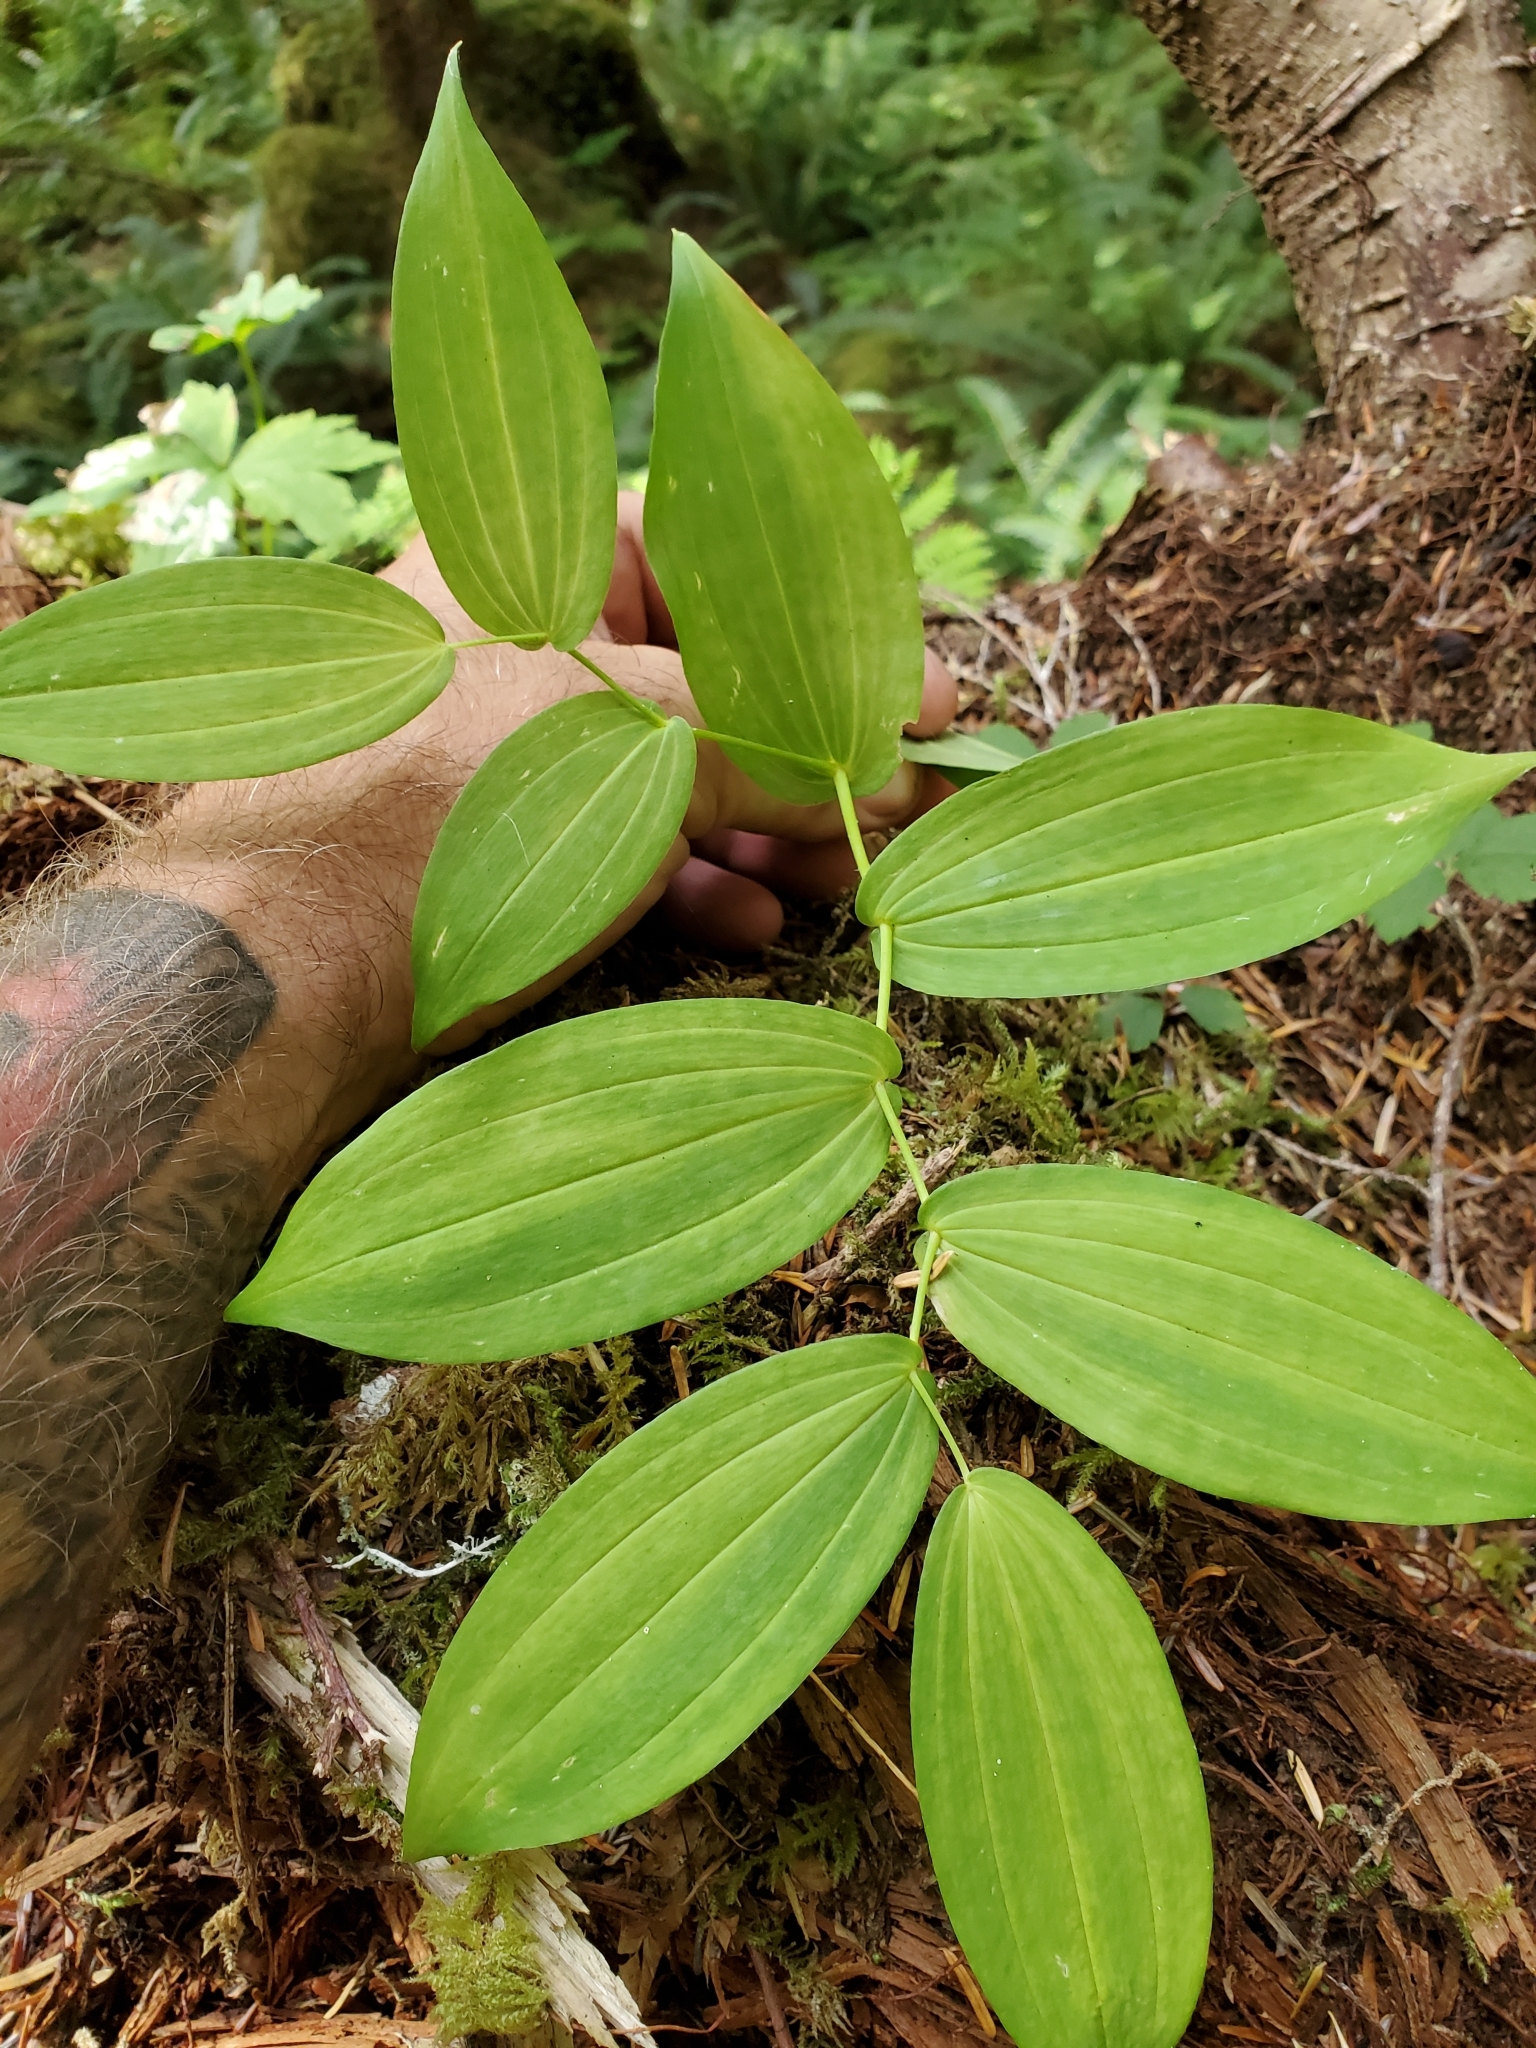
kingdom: Plantae
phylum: Tracheophyta
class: Liliopsida
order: Liliales
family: Liliaceae
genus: Streptopus
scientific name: Streptopus amplexifolius
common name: Clasp twisted stalk
